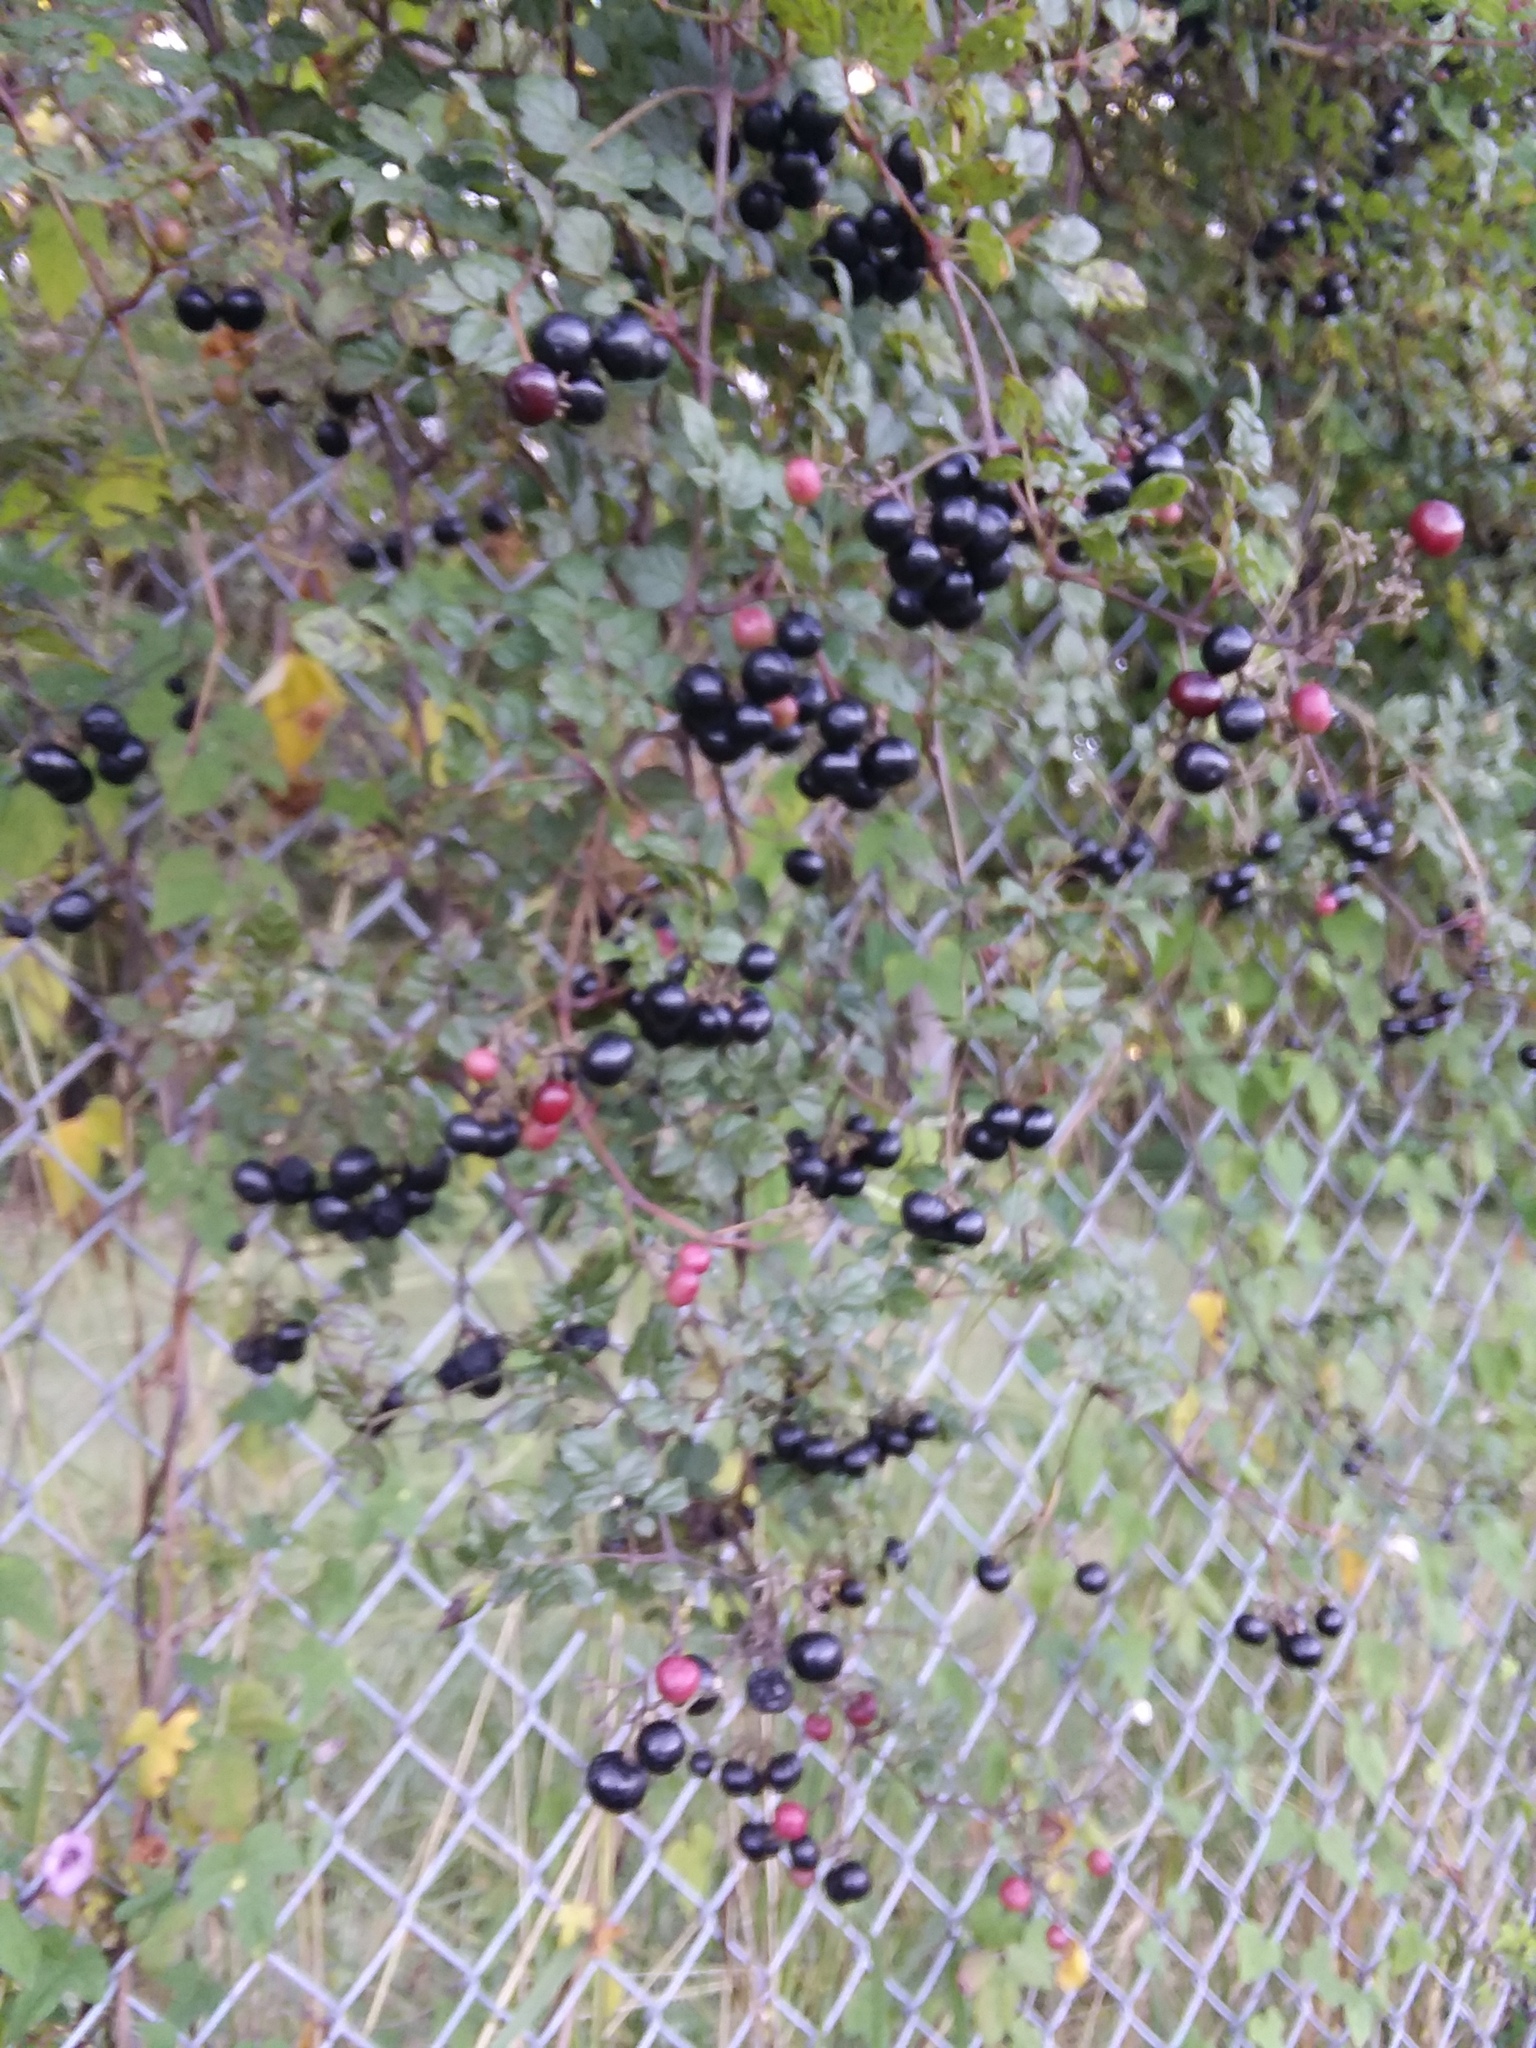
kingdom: Plantae
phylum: Tracheophyta
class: Magnoliopsida
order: Vitales
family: Vitaceae
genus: Nekemias
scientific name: Nekemias arborea
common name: Peppervine
